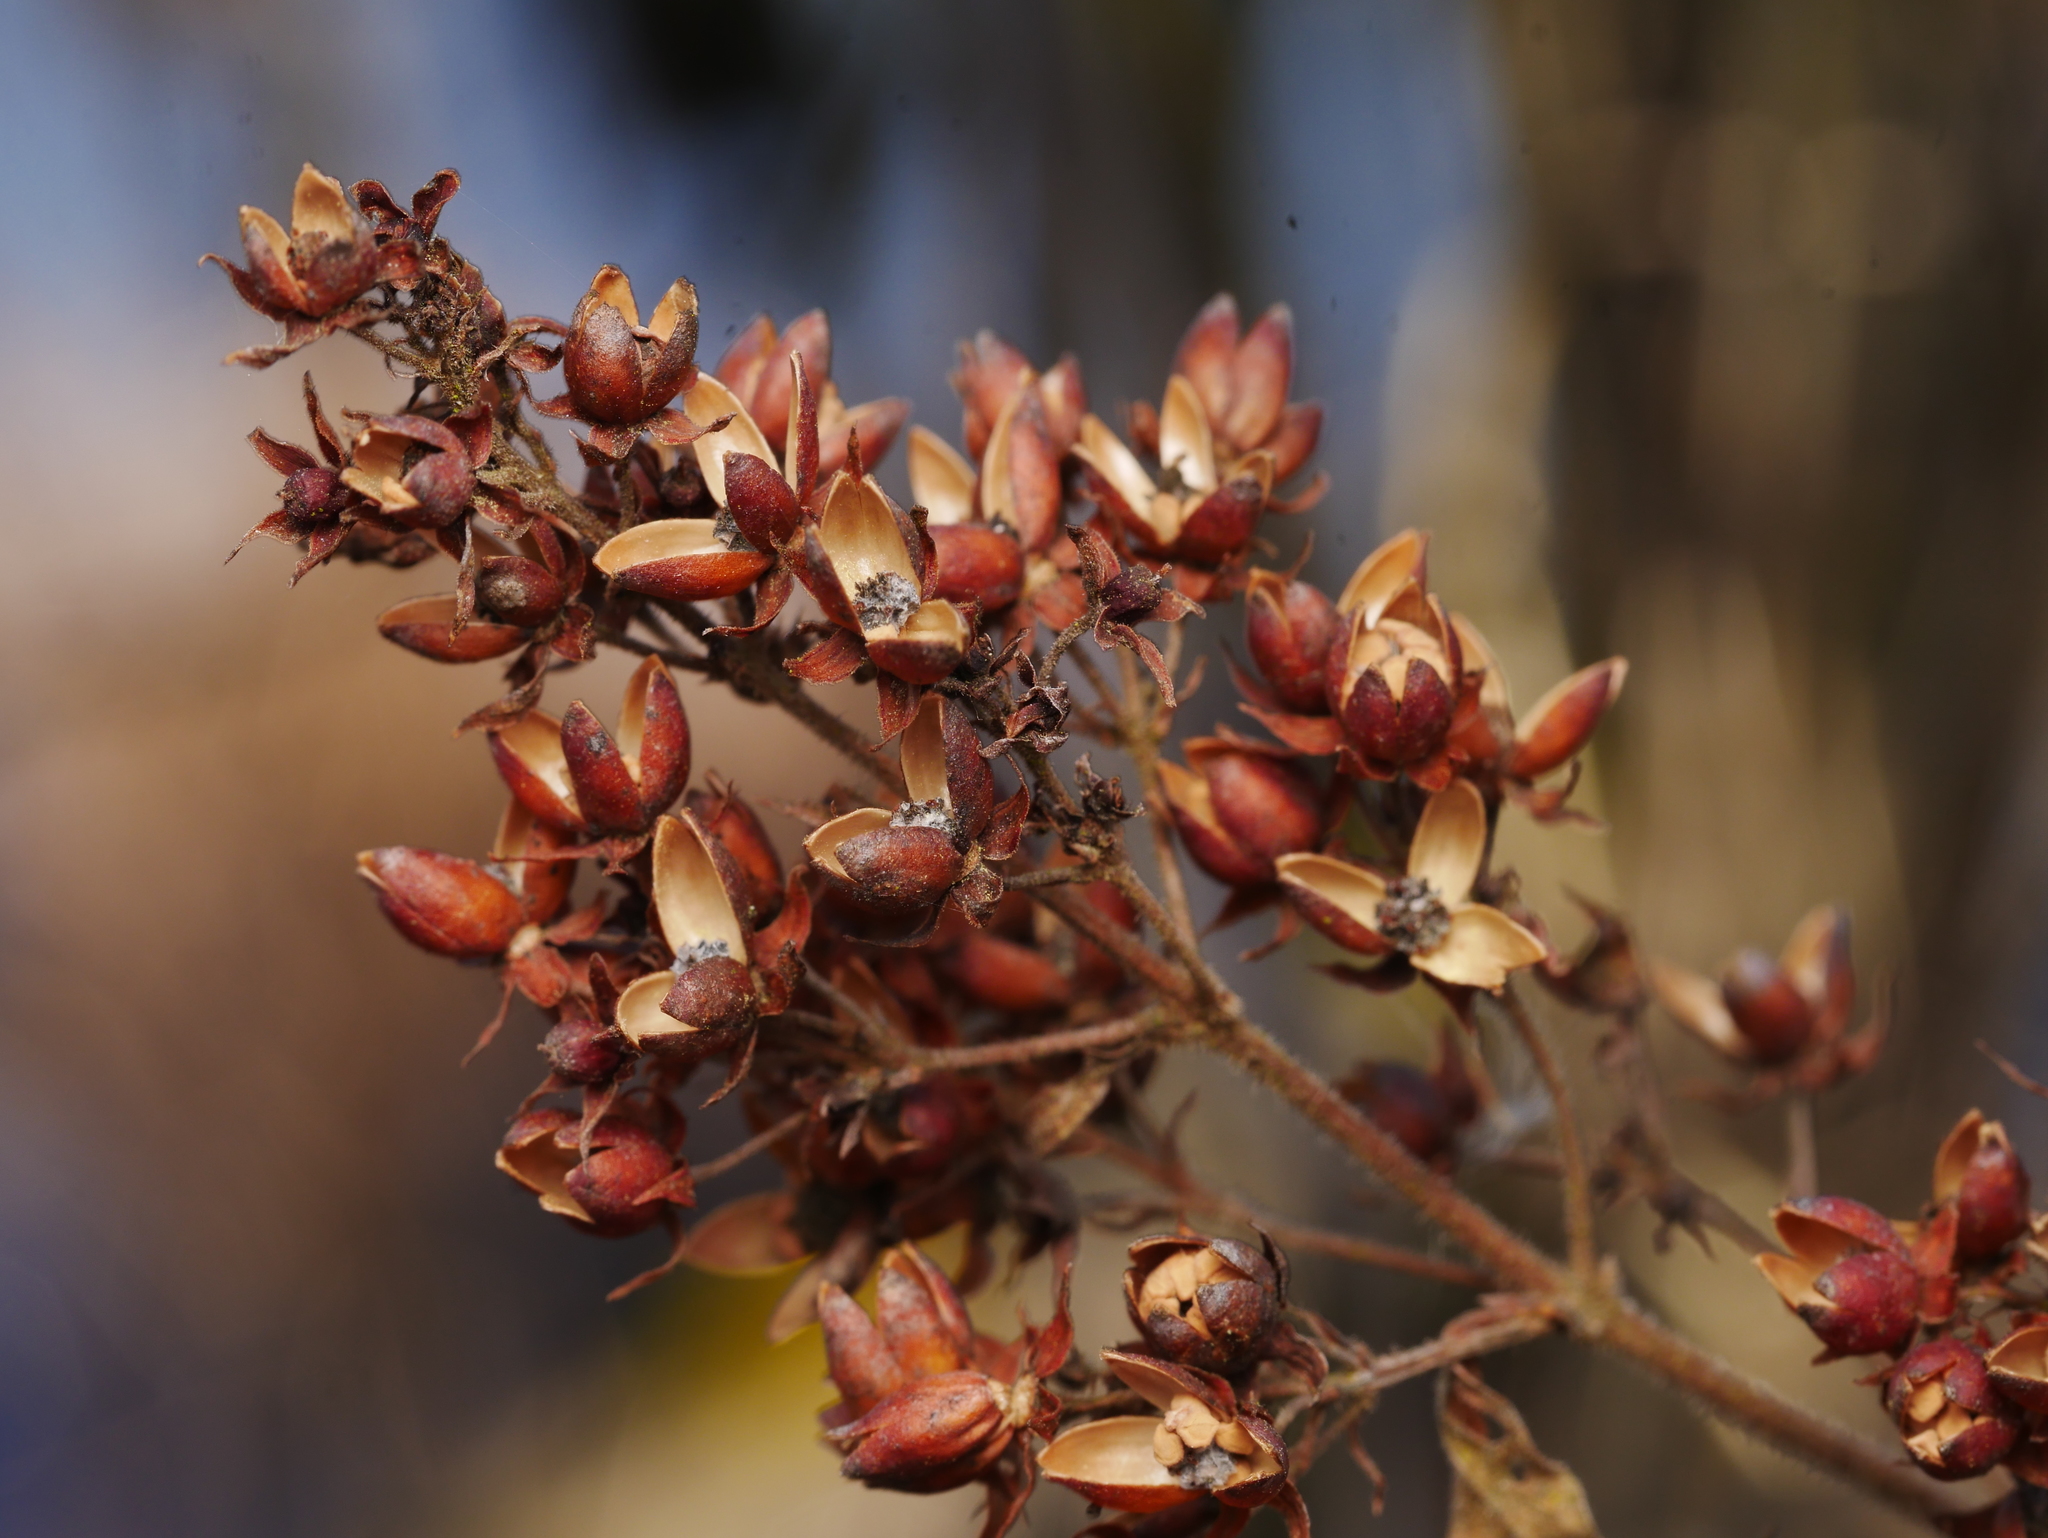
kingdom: Plantae
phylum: Tracheophyta
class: Magnoliopsida
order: Ericales
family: Primulaceae
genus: Lysimachia
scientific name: Lysimachia vulgaris
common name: Yellow loosestrife
